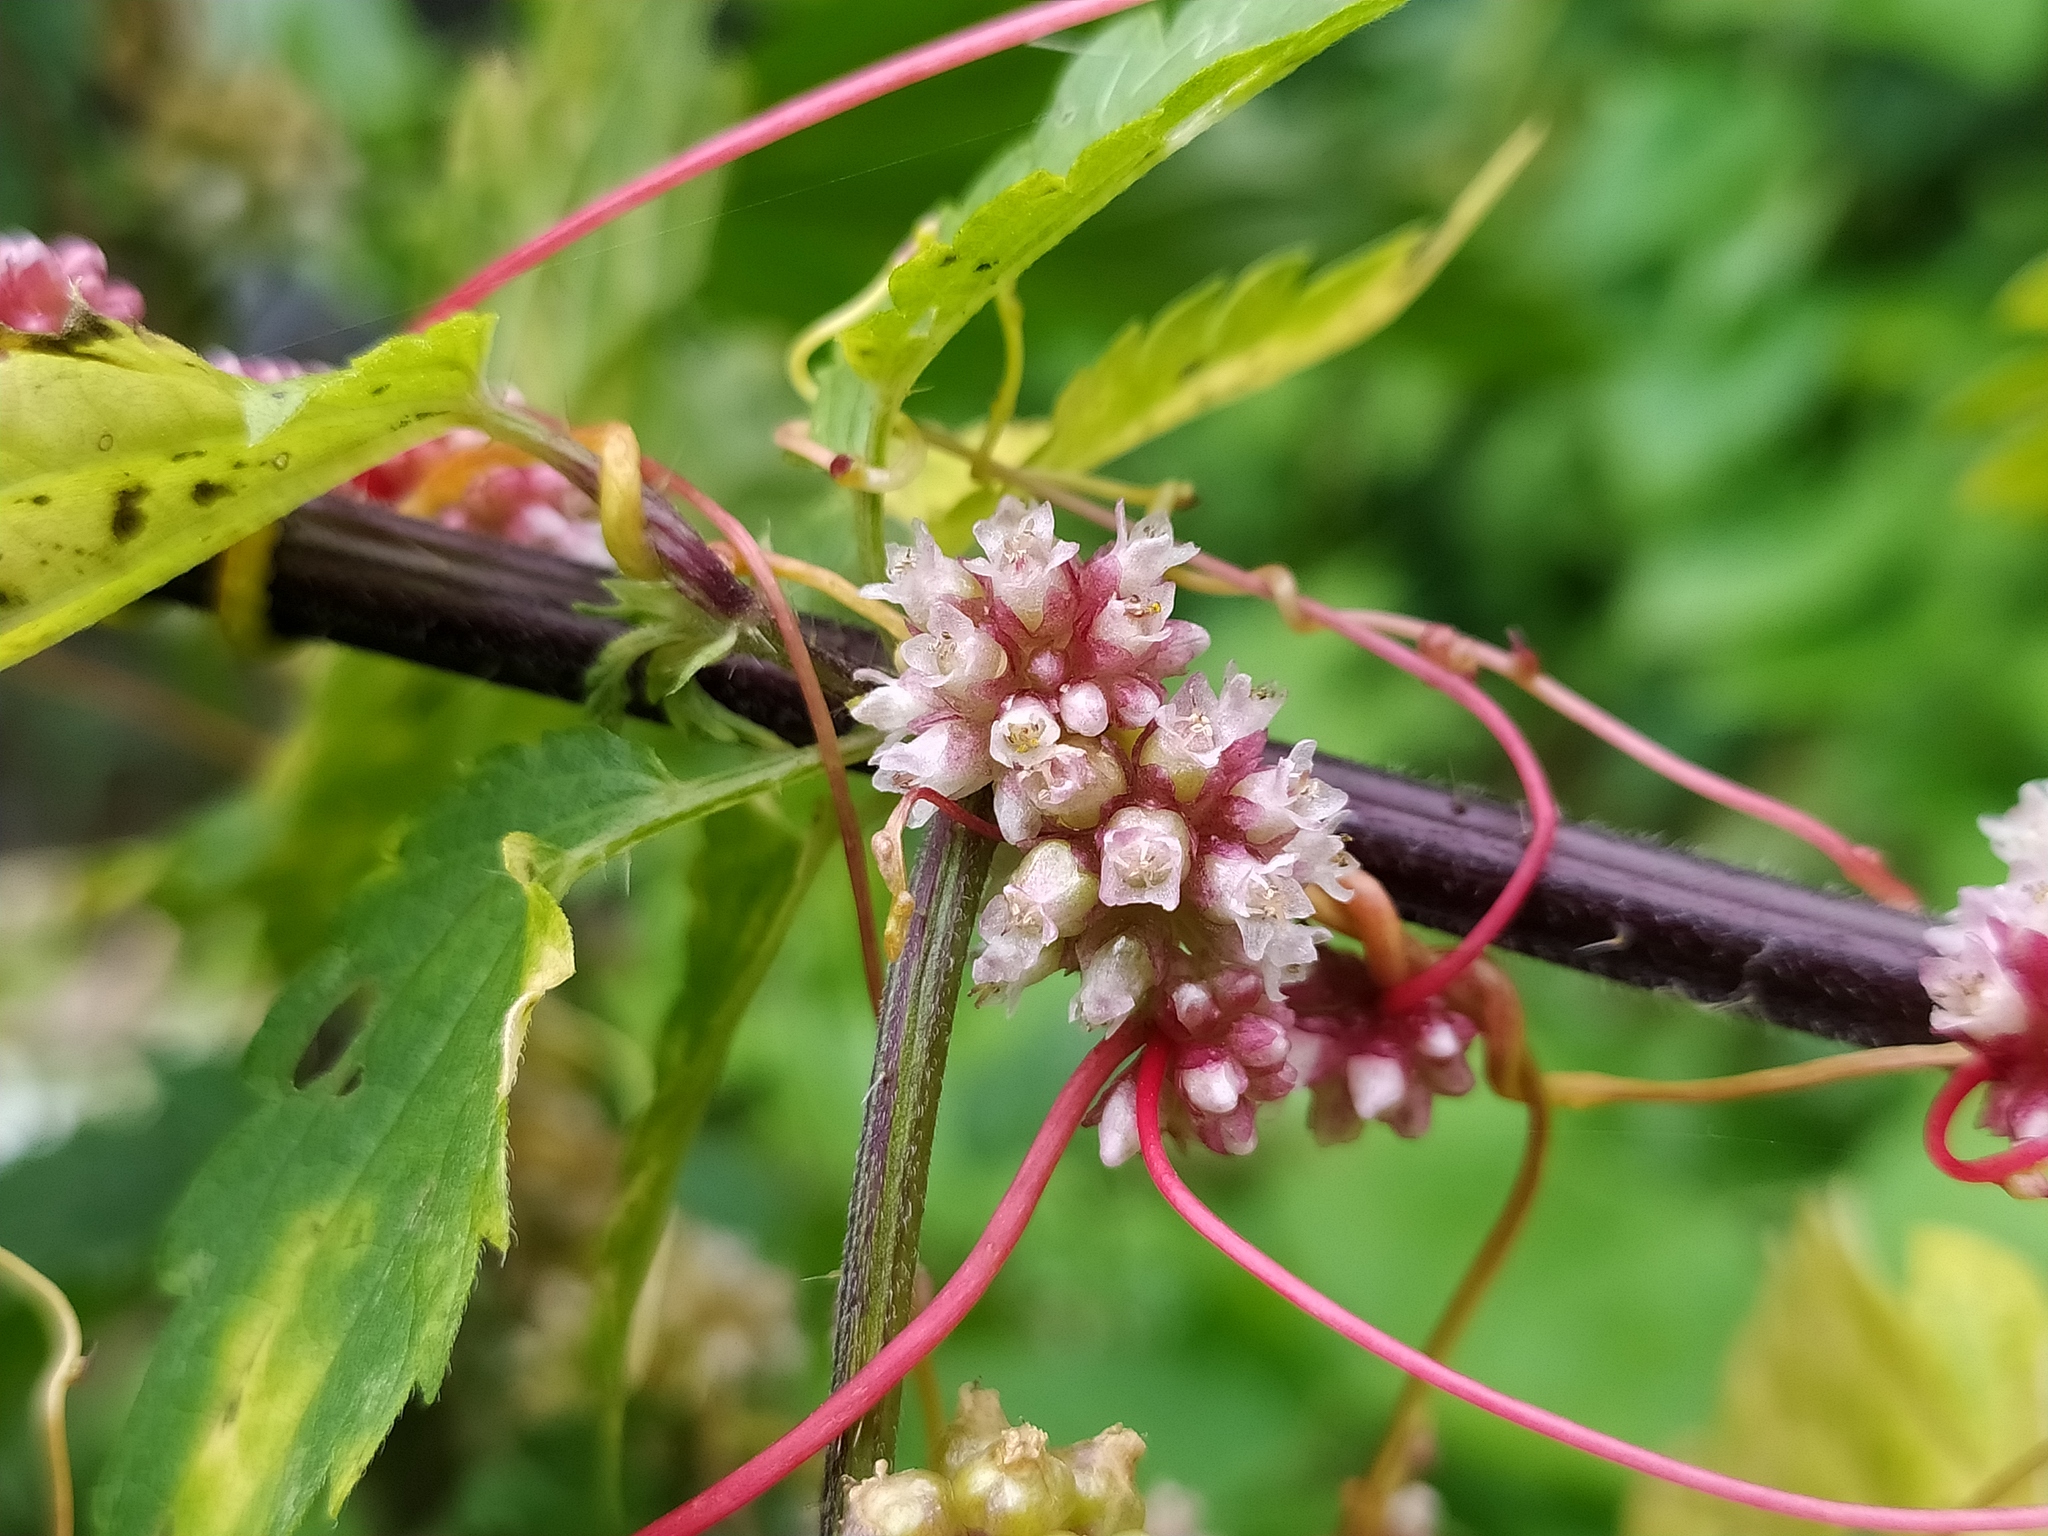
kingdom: Plantae
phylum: Tracheophyta
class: Magnoliopsida
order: Solanales
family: Convolvulaceae
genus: Cuscuta
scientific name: Cuscuta europaea
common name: Greater dodder
